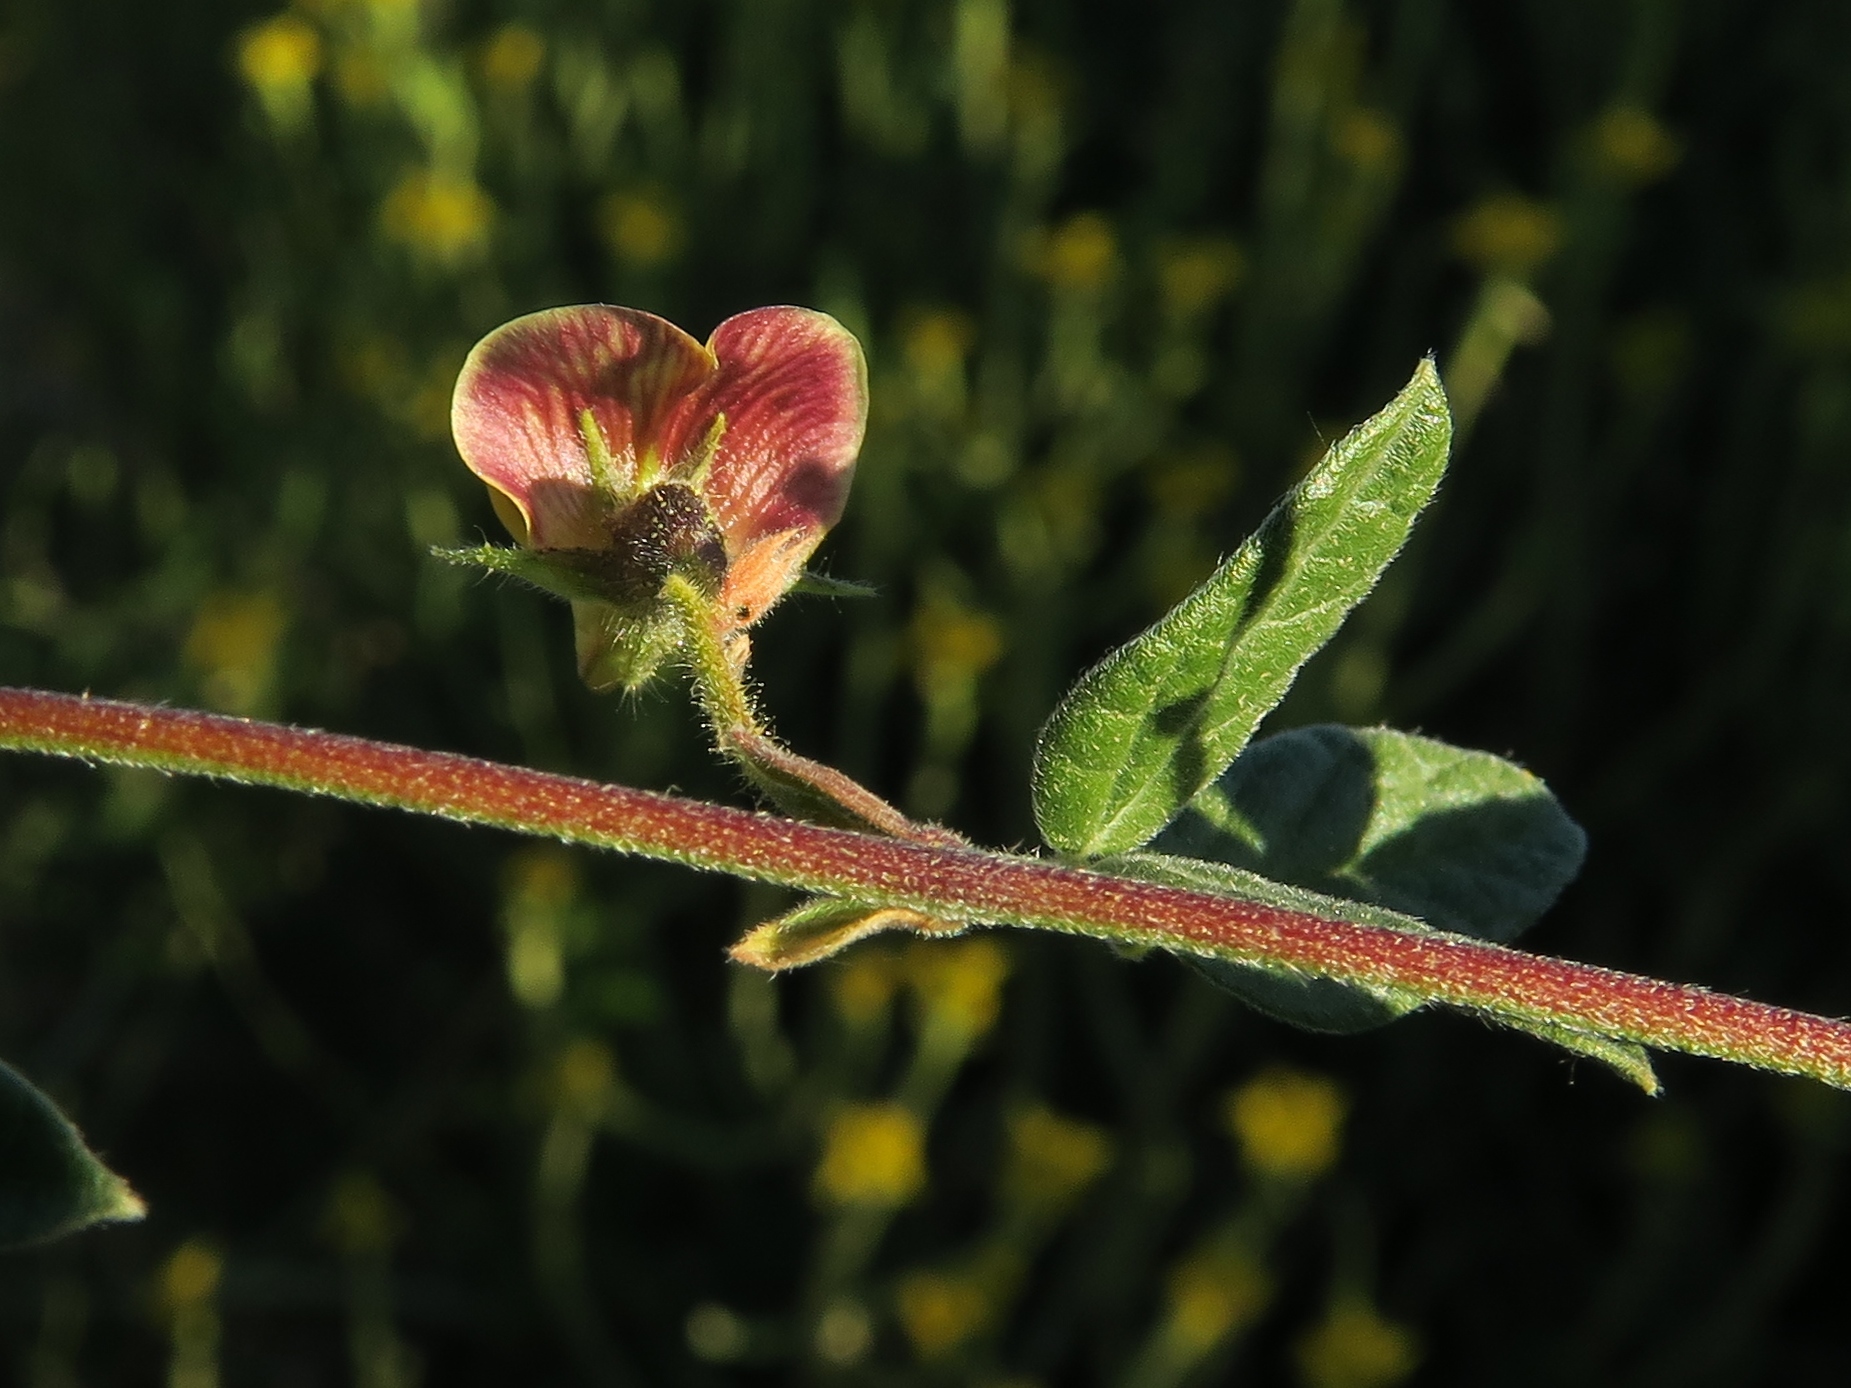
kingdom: Plantae
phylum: Tracheophyta
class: Magnoliopsida
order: Fabales
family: Fabaceae
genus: Rhynchosia
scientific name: Rhynchosia schlechteri
